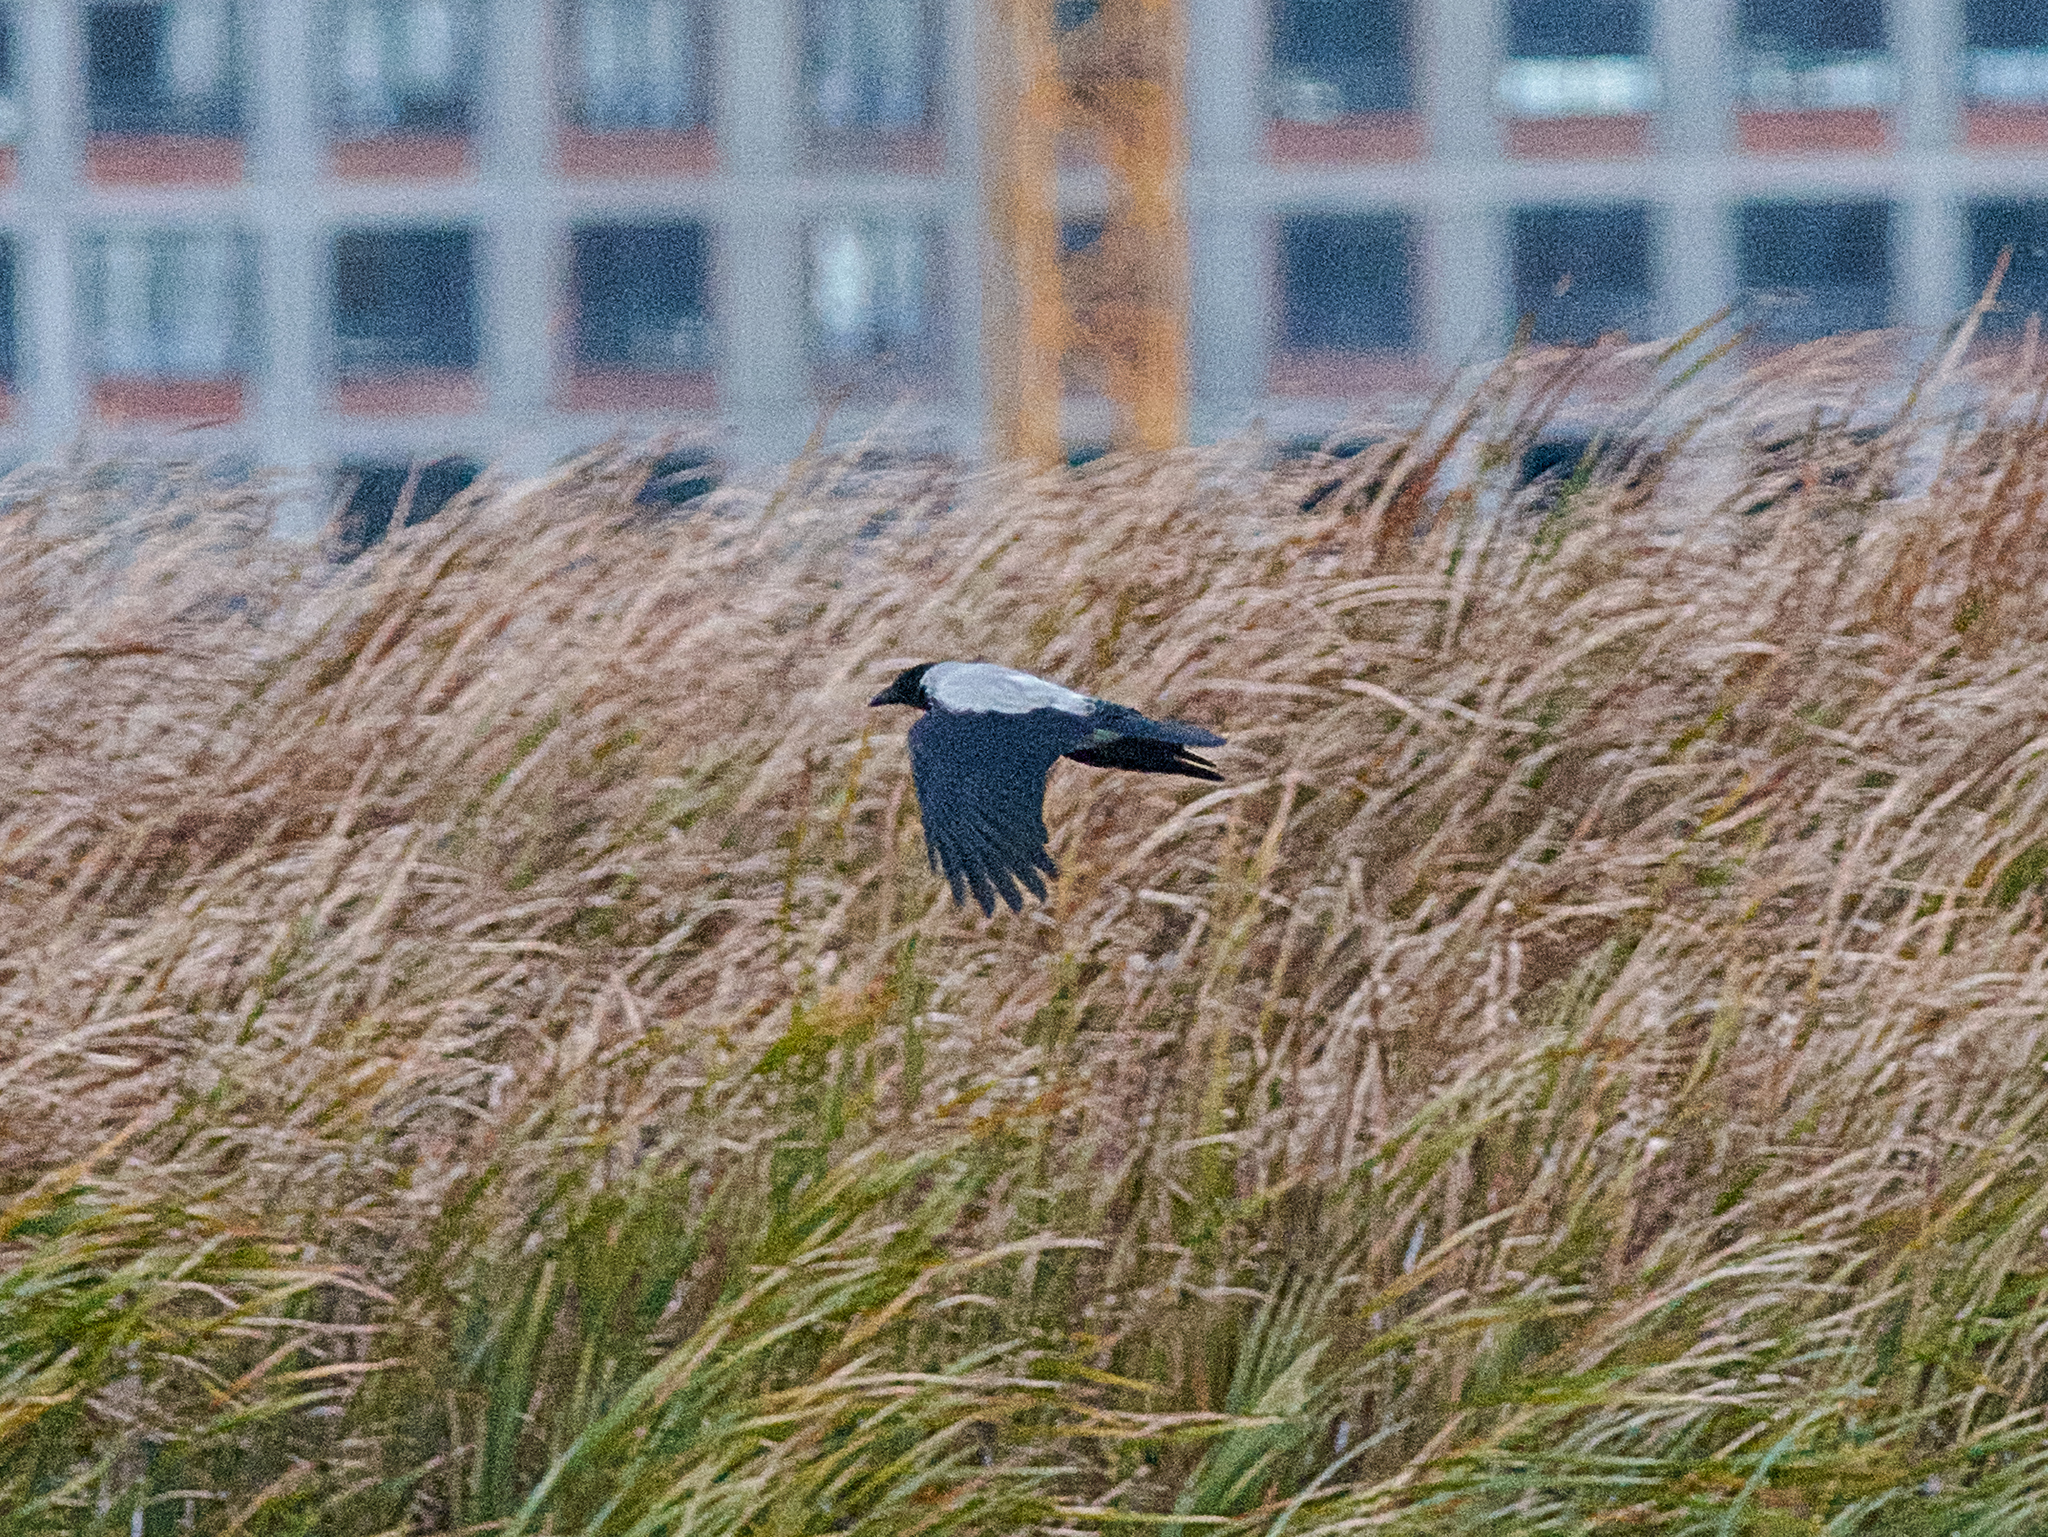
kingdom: Animalia
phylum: Chordata
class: Aves
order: Passeriformes
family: Corvidae
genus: Corvus
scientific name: Corvus cornix
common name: Hooded crow
